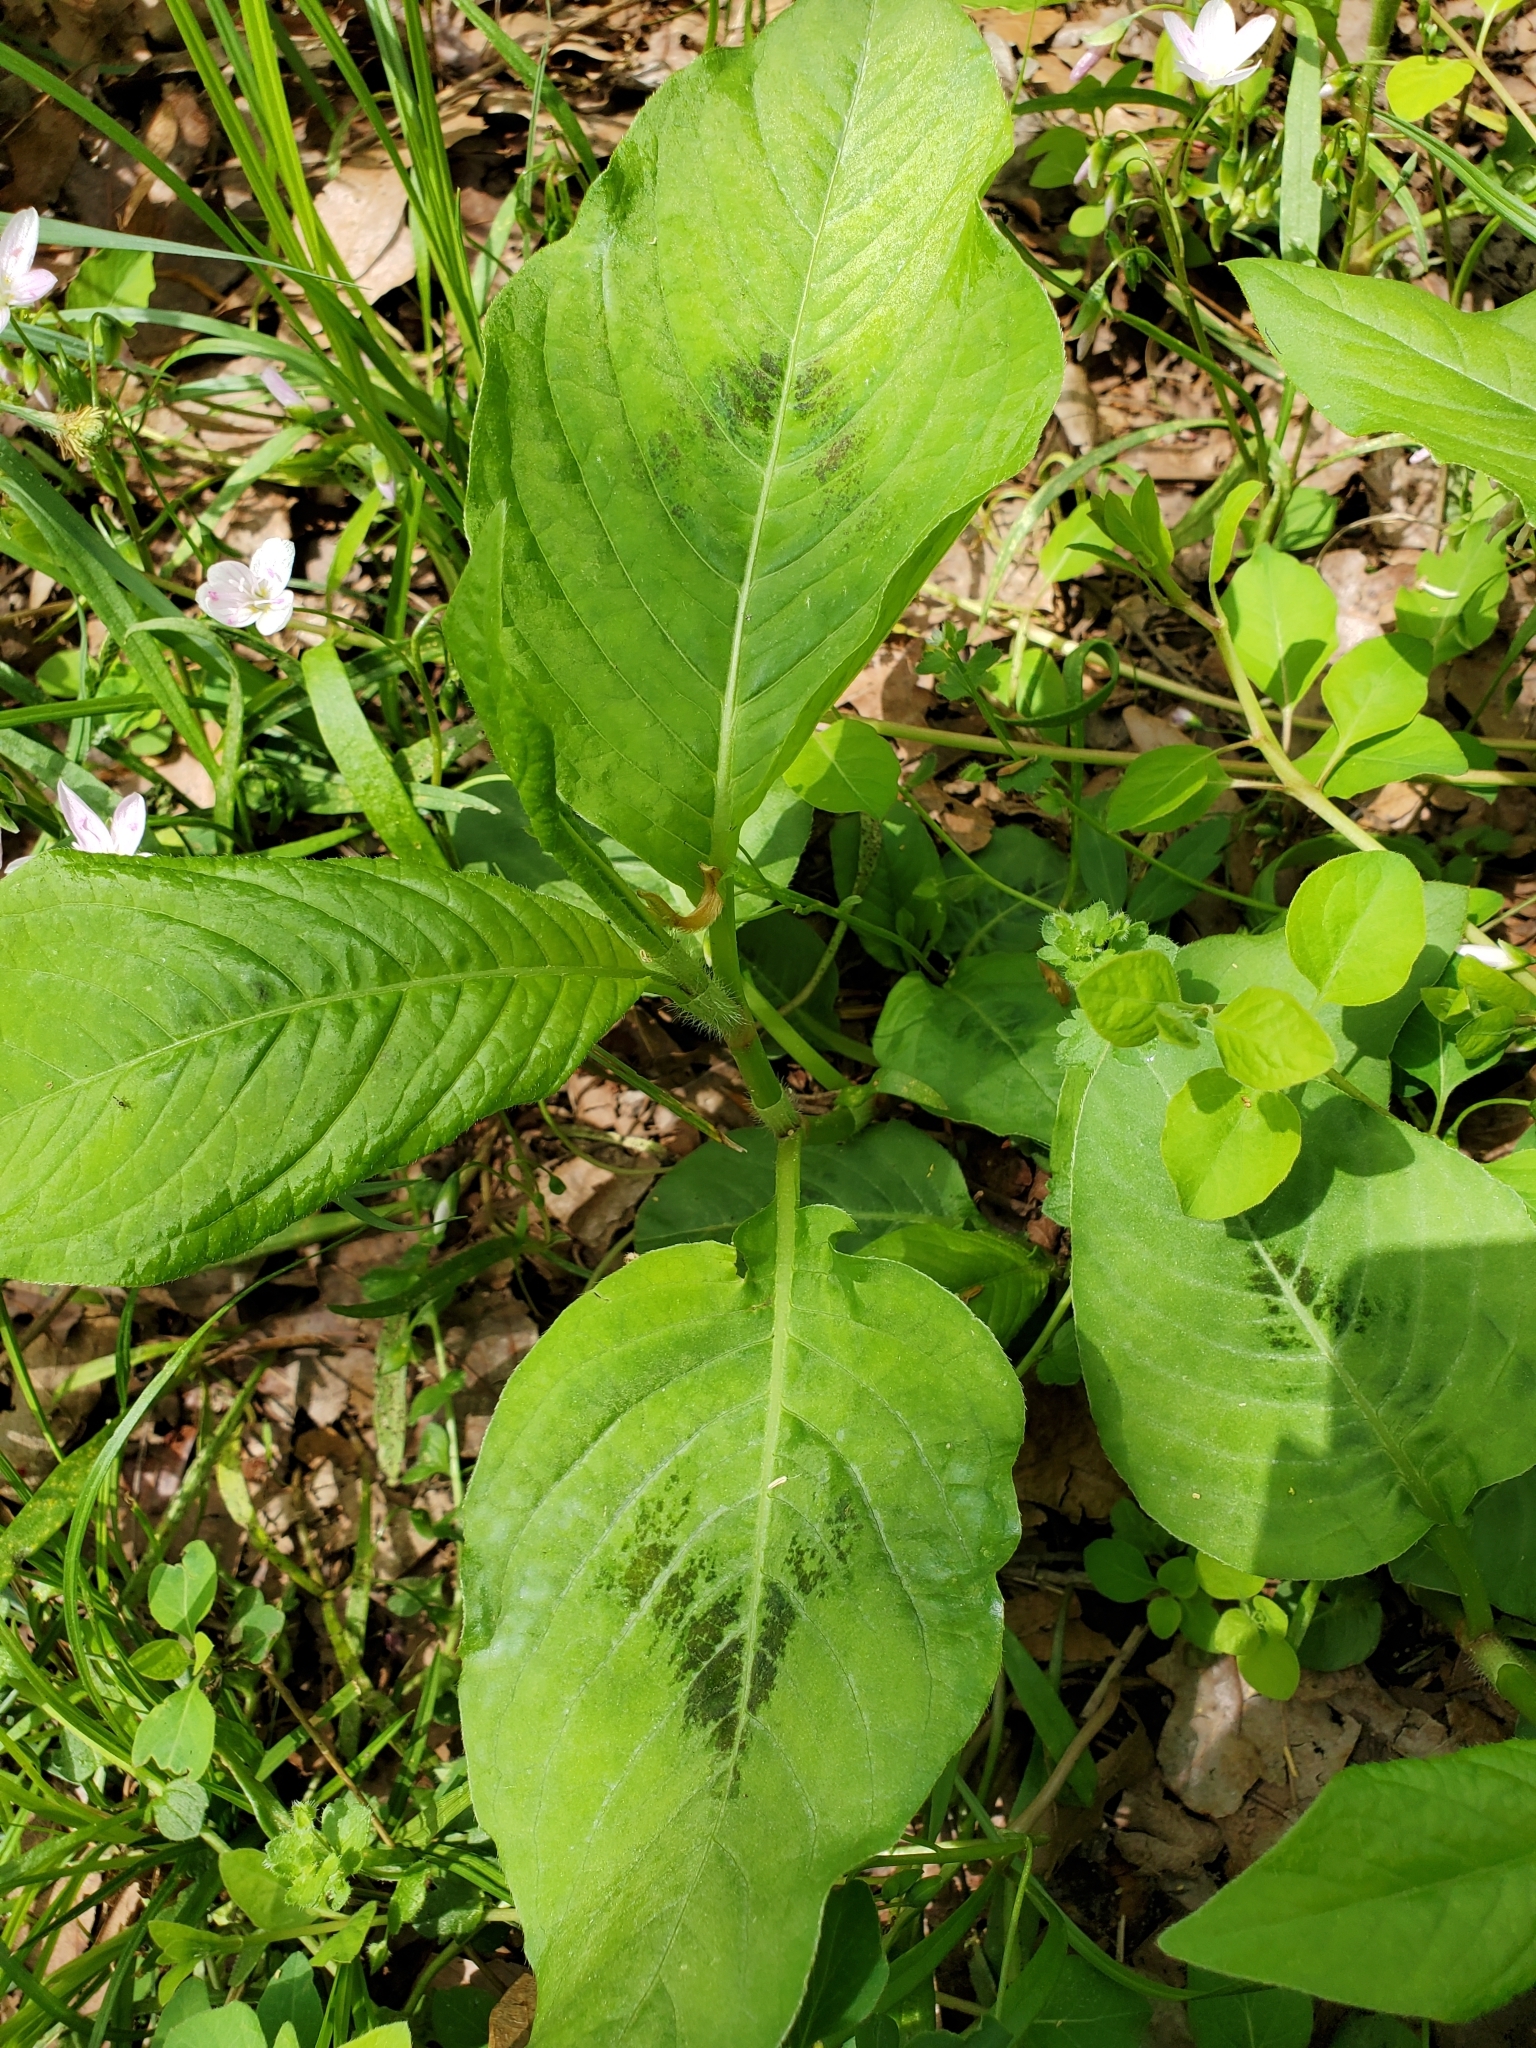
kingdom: Plantae
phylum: Tracheophyta
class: Magnoliopsida
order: Caryophyllales
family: Polygonaceae
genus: Persicaria
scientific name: Persicaria virginiana
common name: Jumpseed
